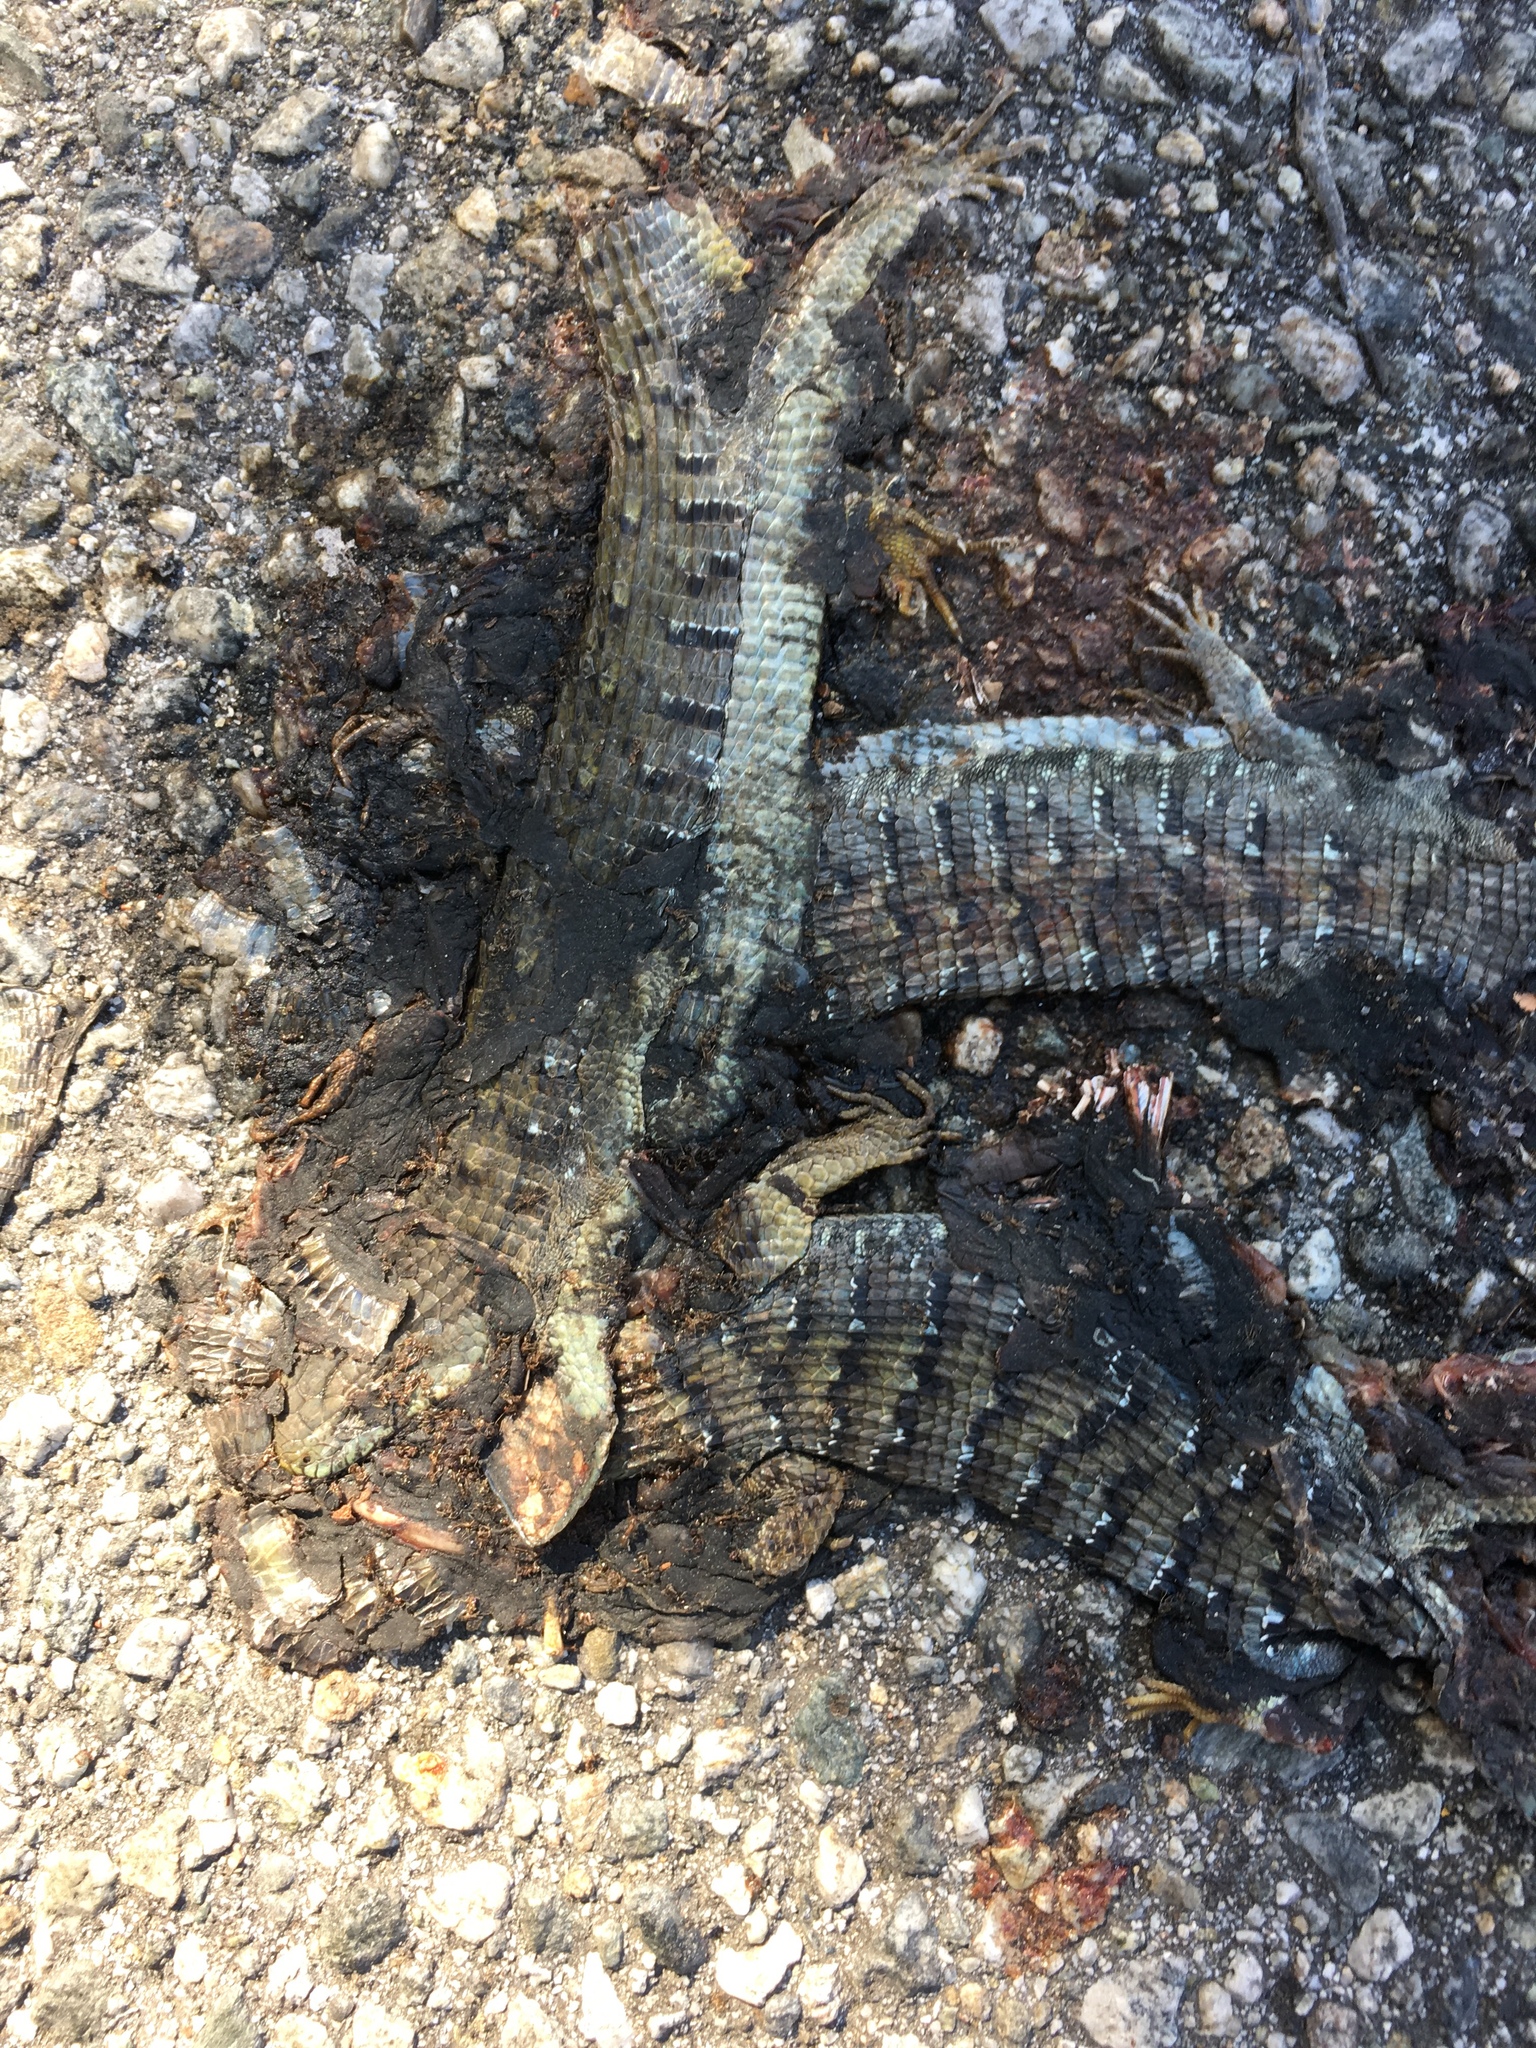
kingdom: Animalia
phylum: Chordata
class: Squamata
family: Anguidae
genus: Elgaria
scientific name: Elgaria multicarinata
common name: Southern alligator lizard
